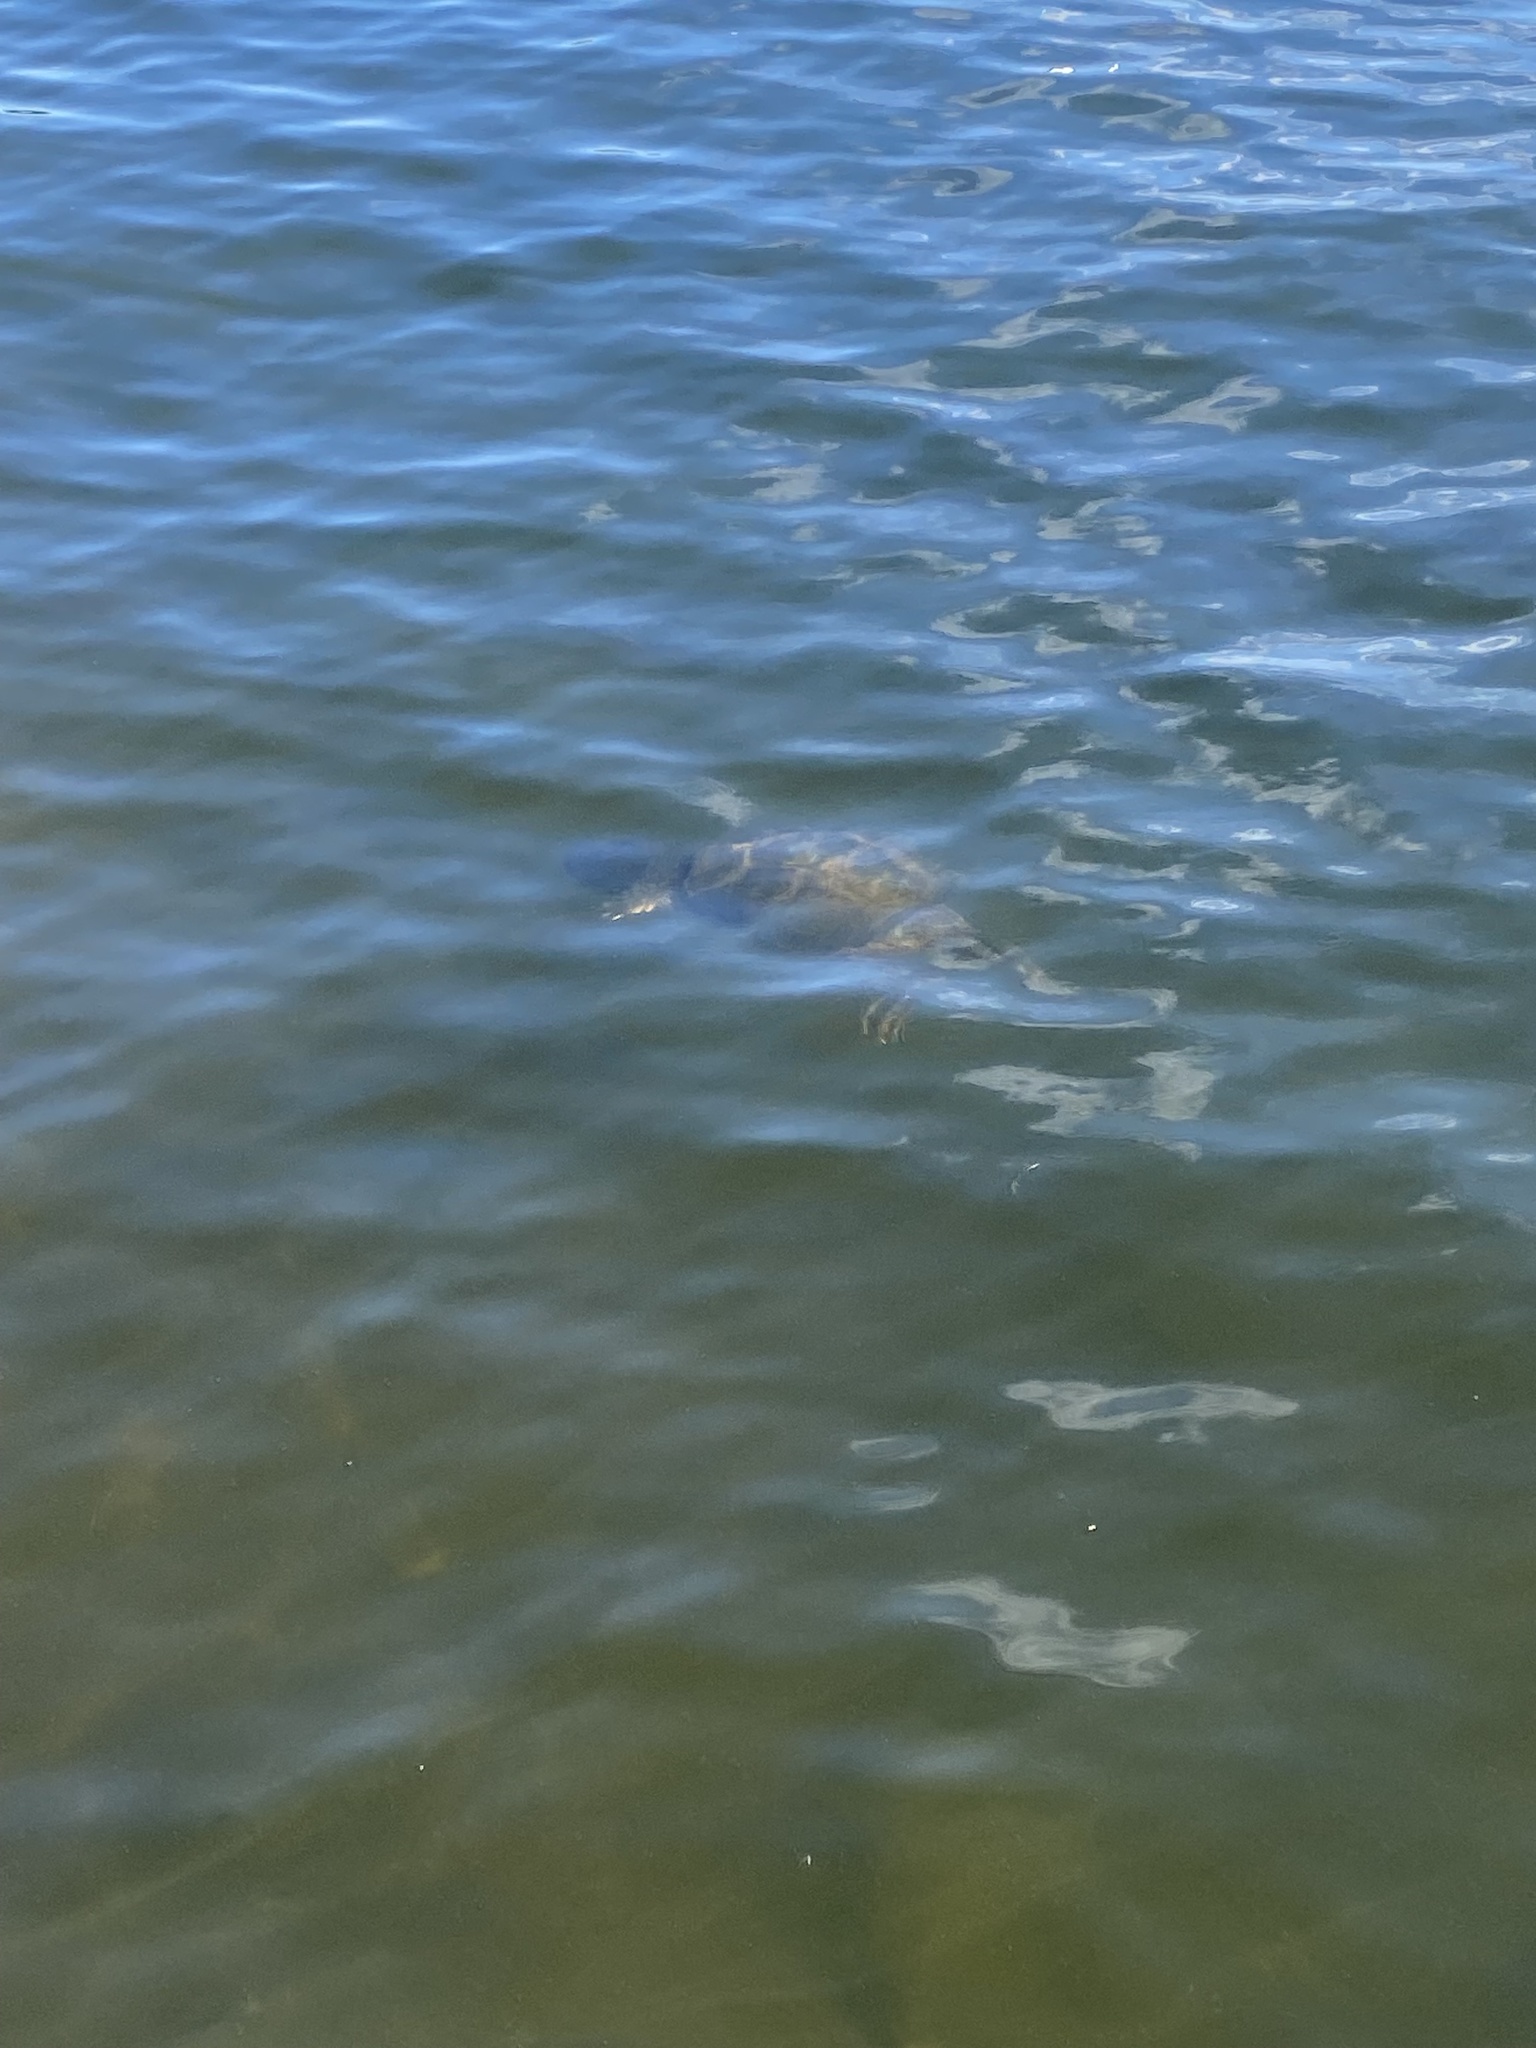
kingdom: Animalia
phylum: Chordata
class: Testudines
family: Chelydridae
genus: Chelydra
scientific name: Chelydra serpentina
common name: Common snapping turtle
